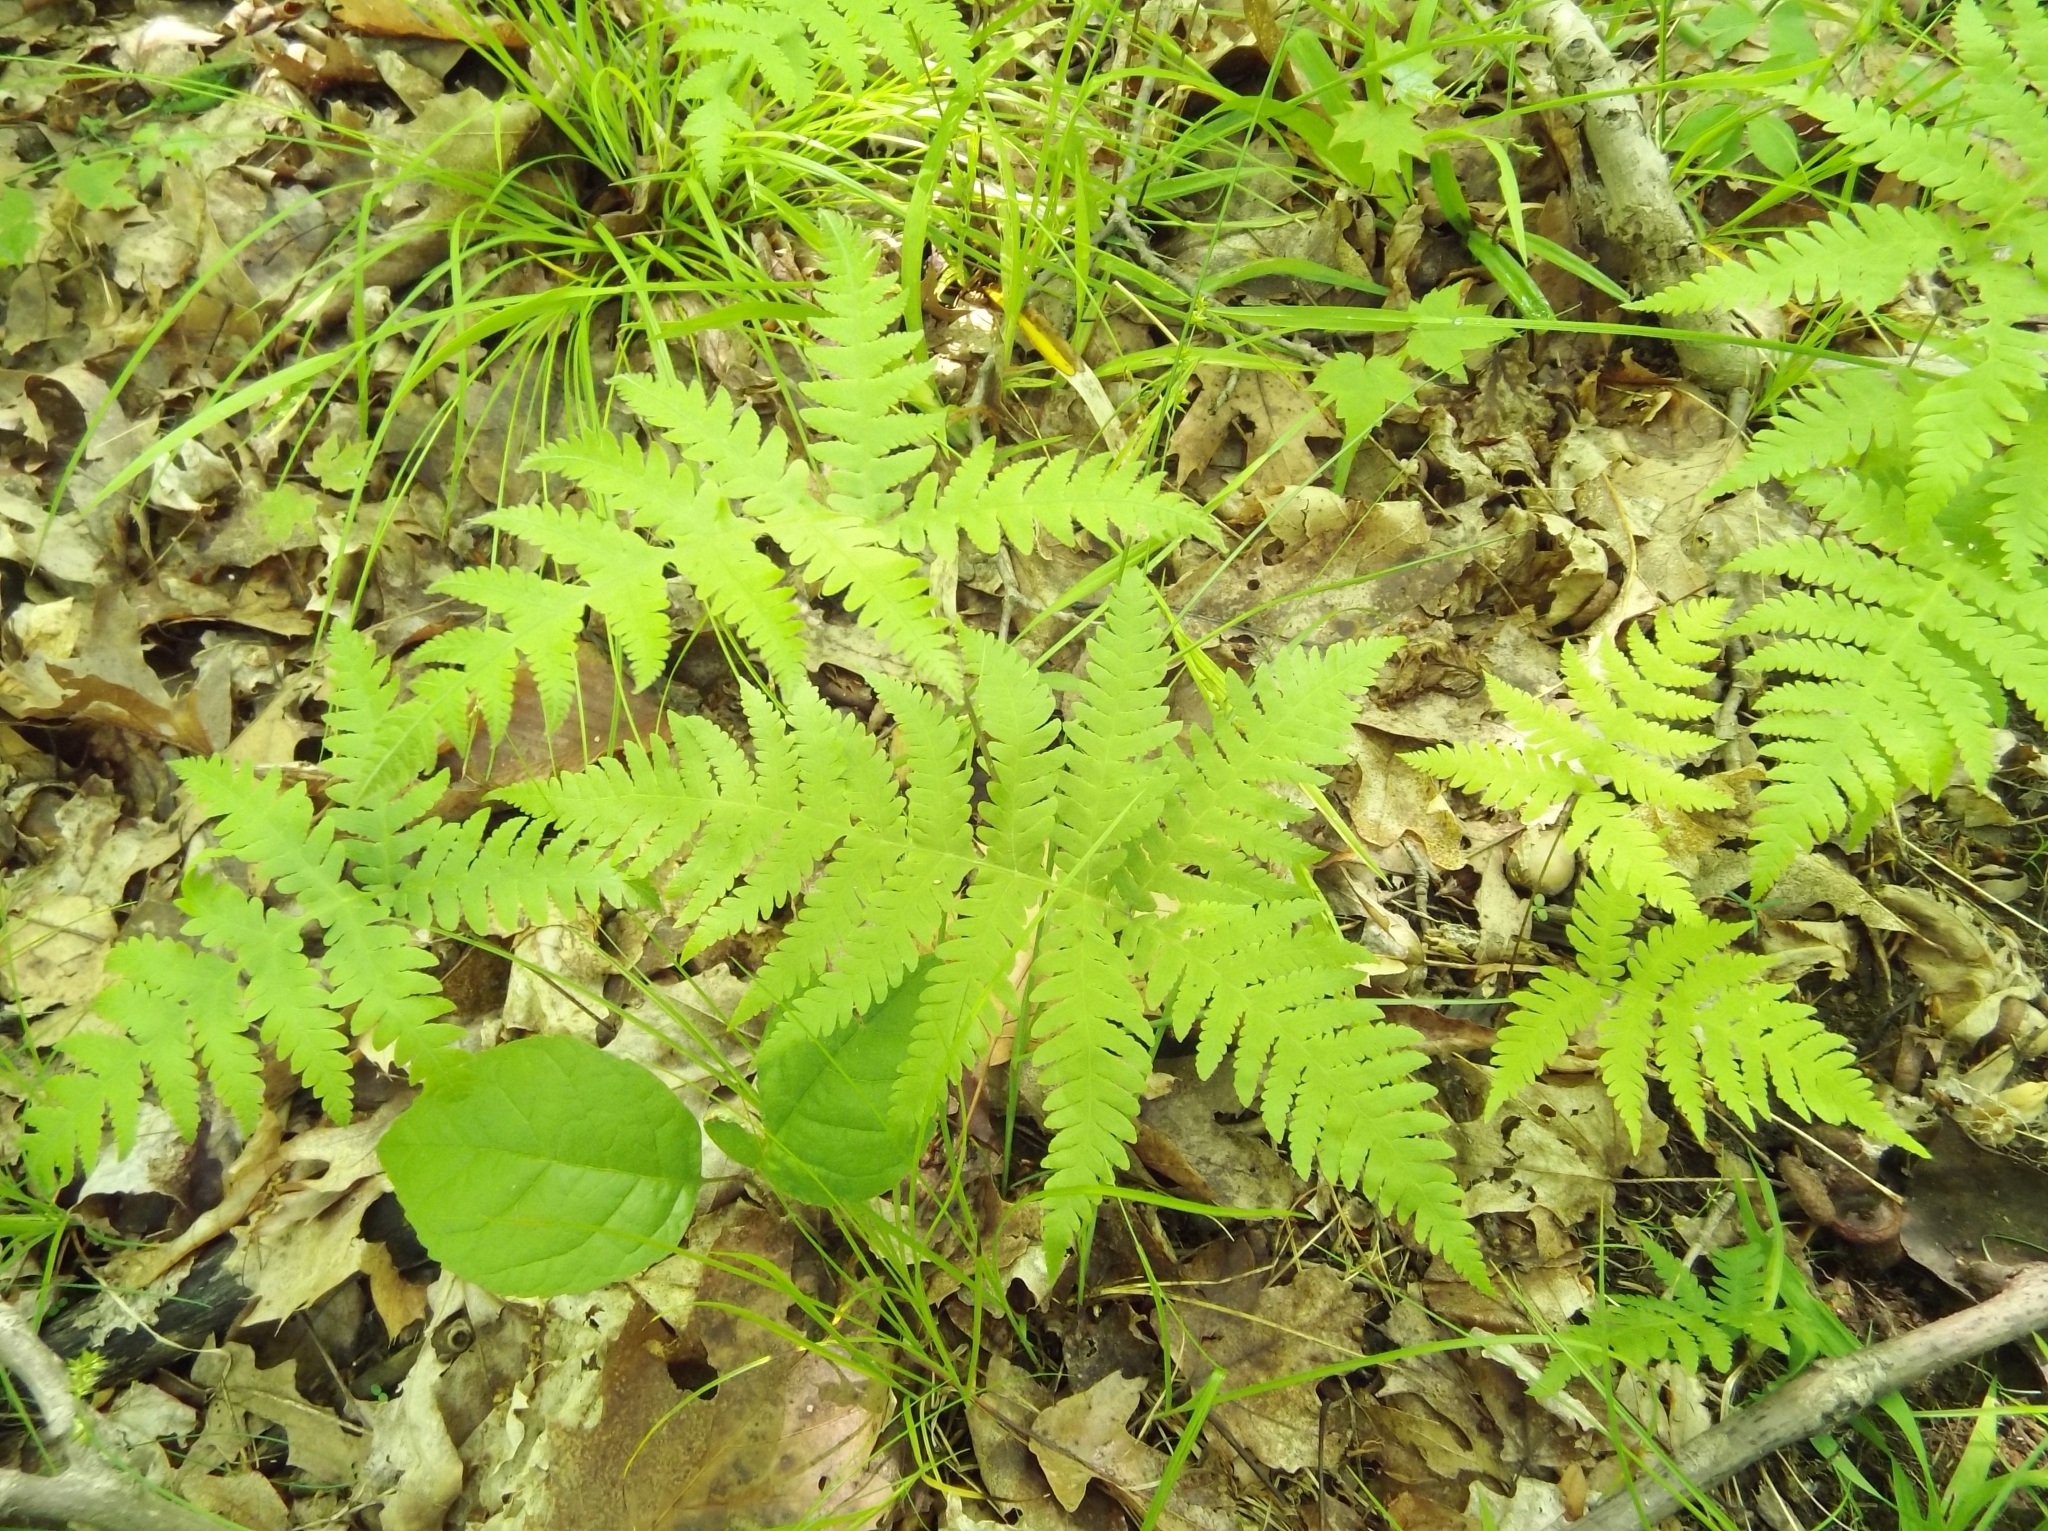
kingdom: Plantae
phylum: Tracheophyta
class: Polypodiopsida
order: Polypodiales
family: Thelypteridaceae
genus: Phegopteris
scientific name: Phegopteris hexagonoptera
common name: Broad beech fern
